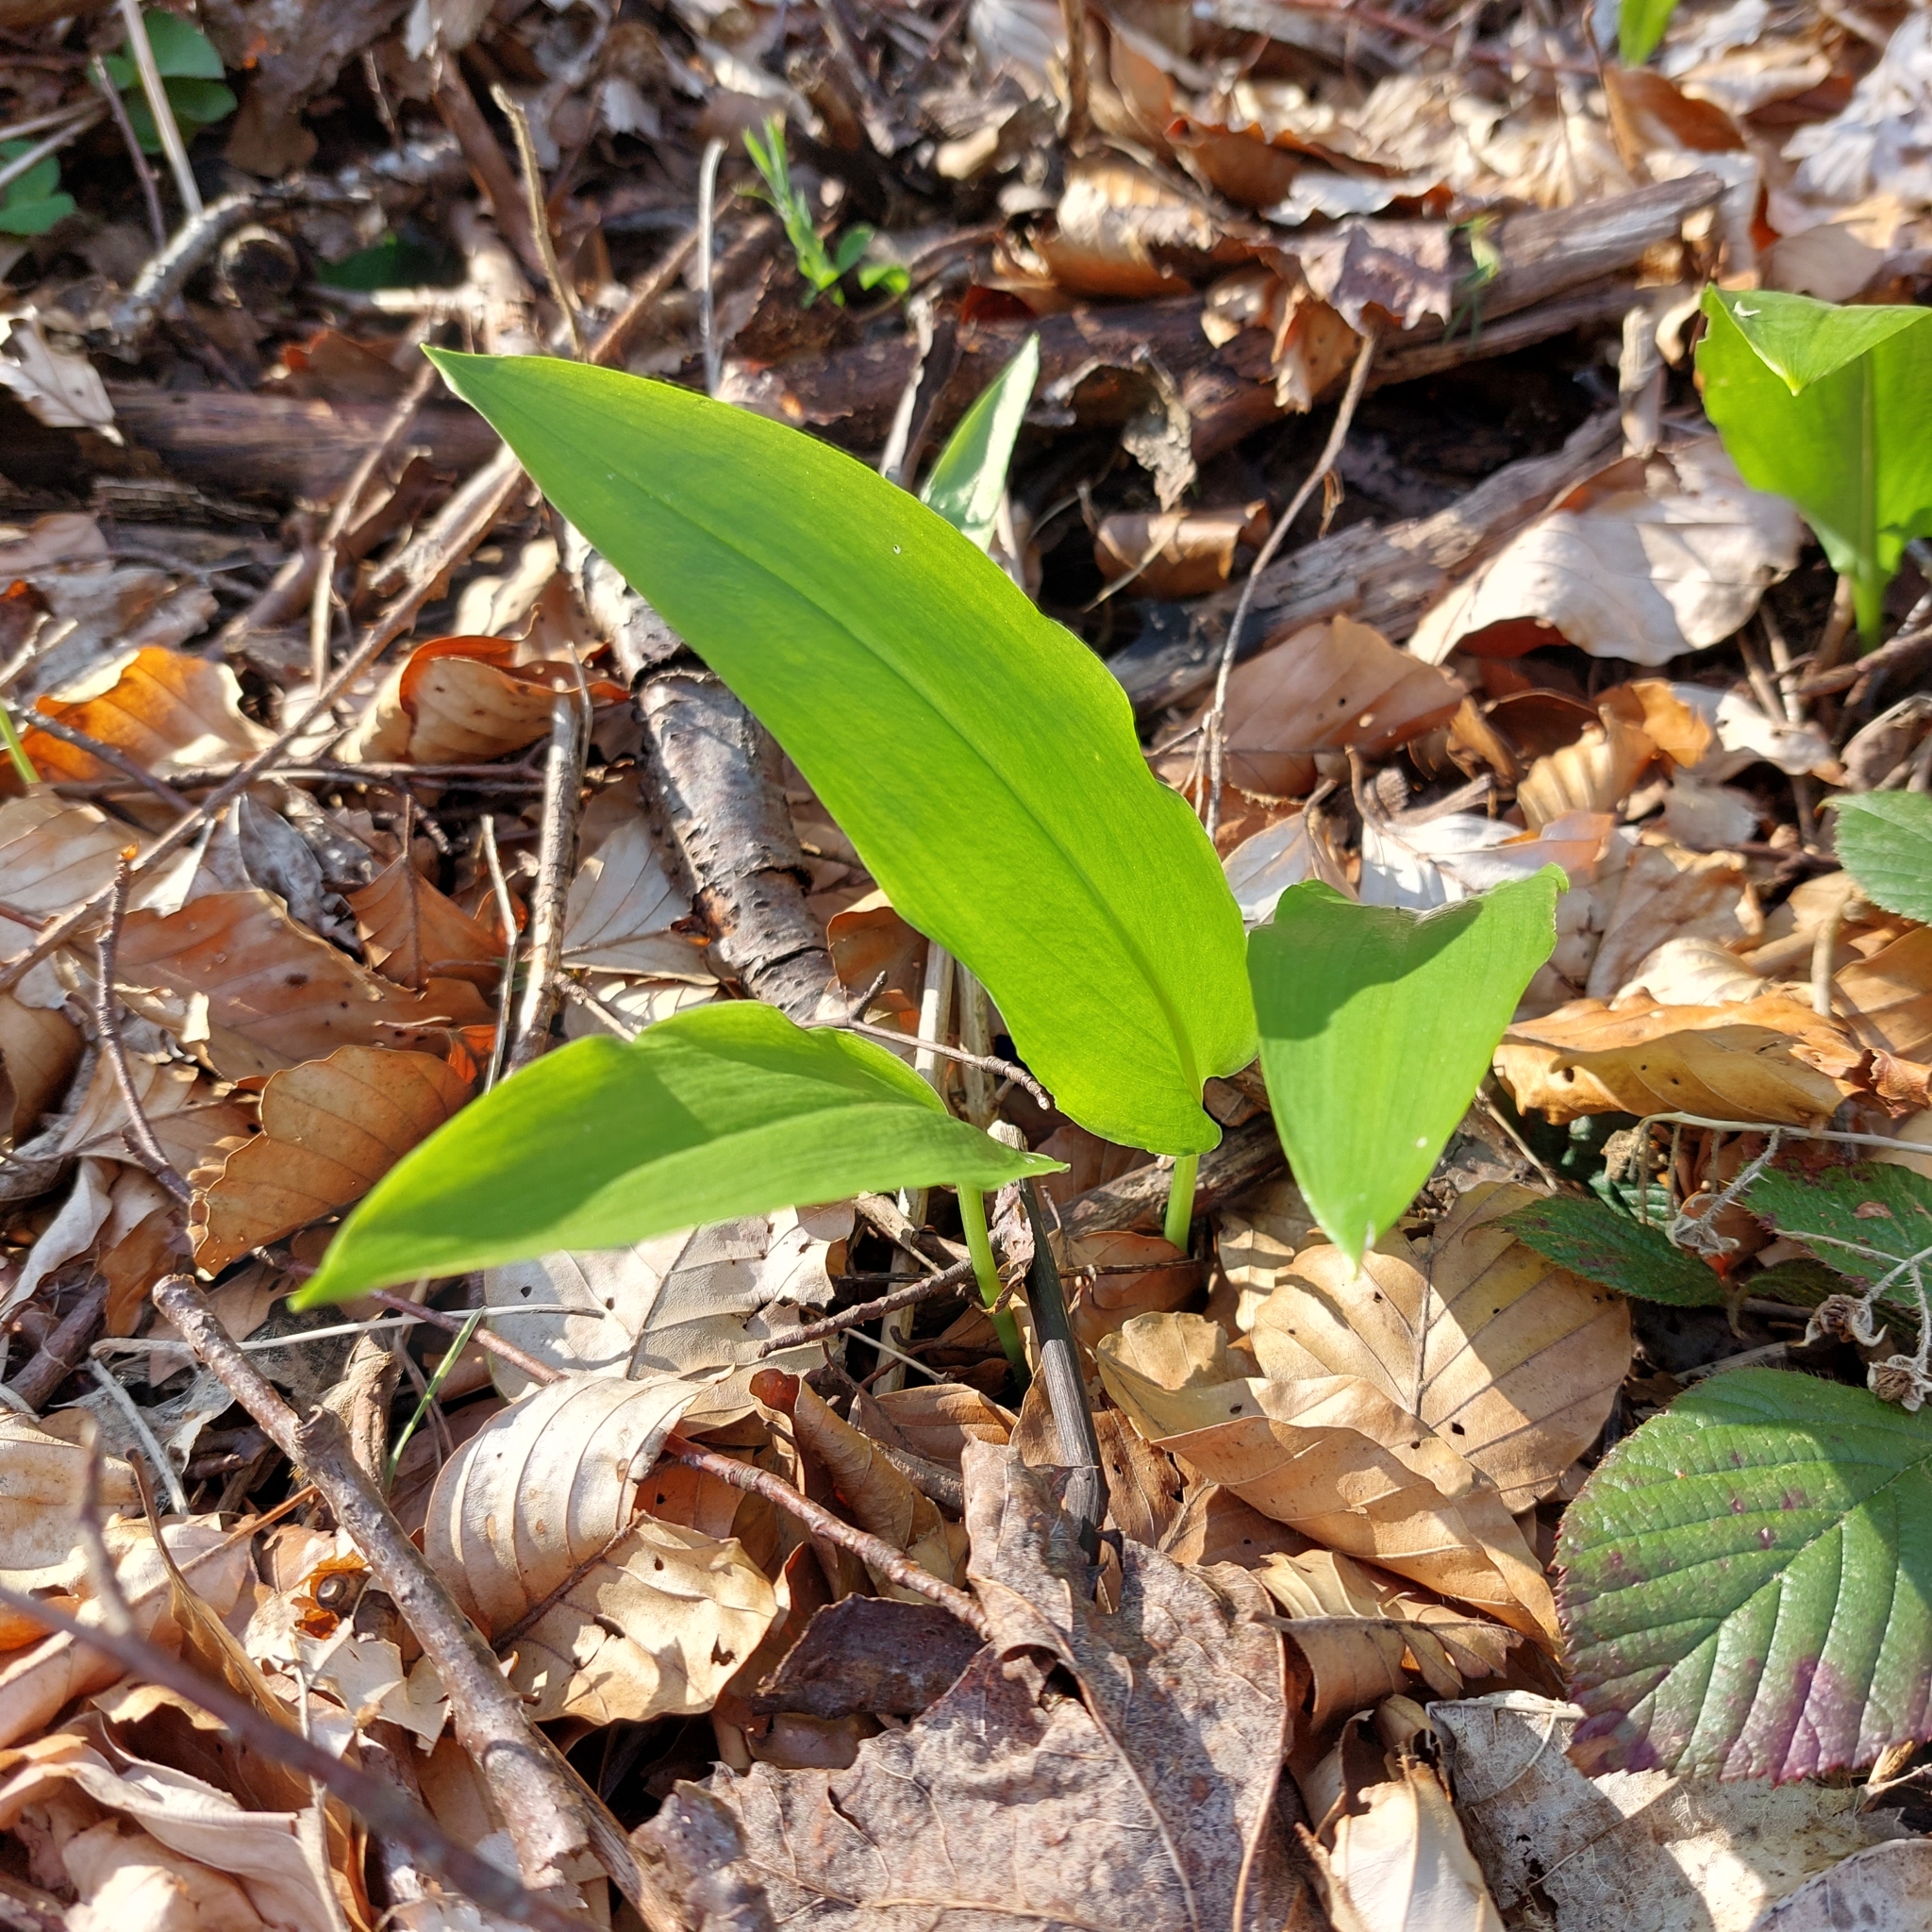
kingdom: Plantae
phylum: Tracheophyta
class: Liliopsida
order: Asparagales
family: Amaryllidaceae
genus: Allium
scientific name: Allium ursinum
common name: Ramsons
